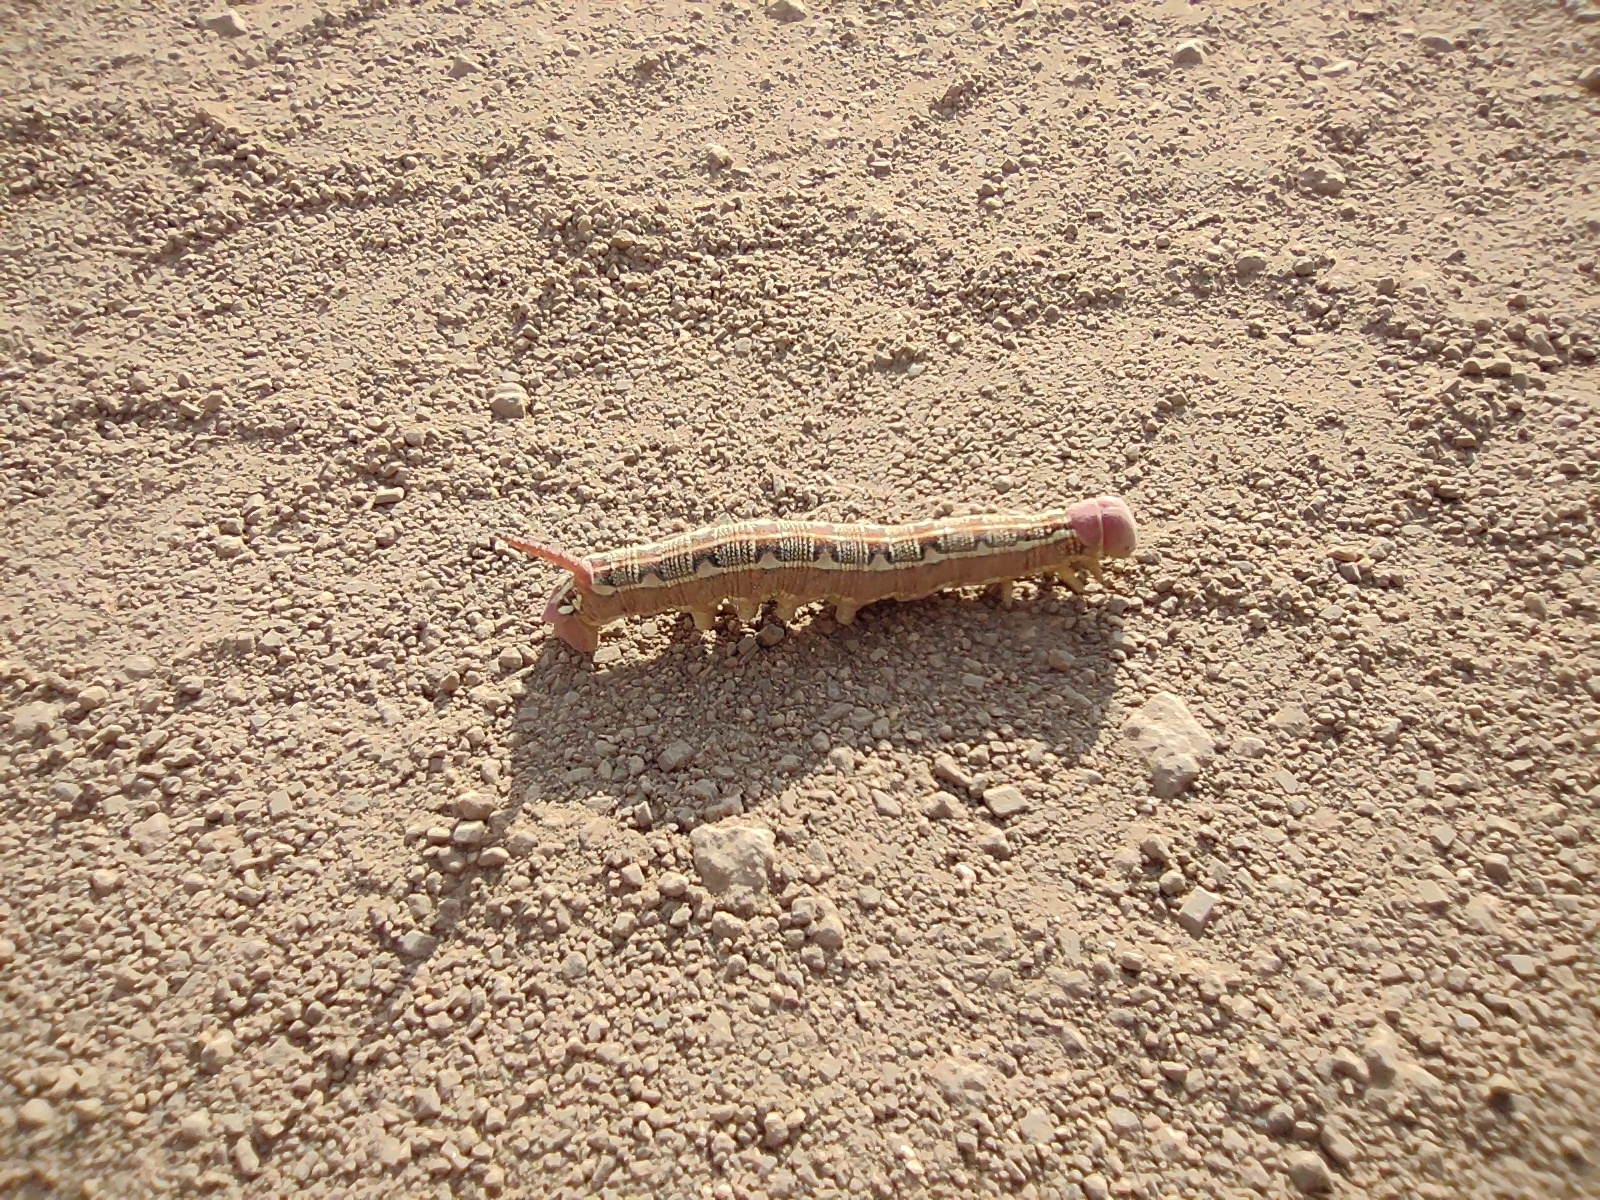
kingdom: Animalia
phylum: Arthropoda
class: Insecta
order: Lepidoptera
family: Sphingidae
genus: Hyles
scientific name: Hyles livornica
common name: Striped hawk-moth
